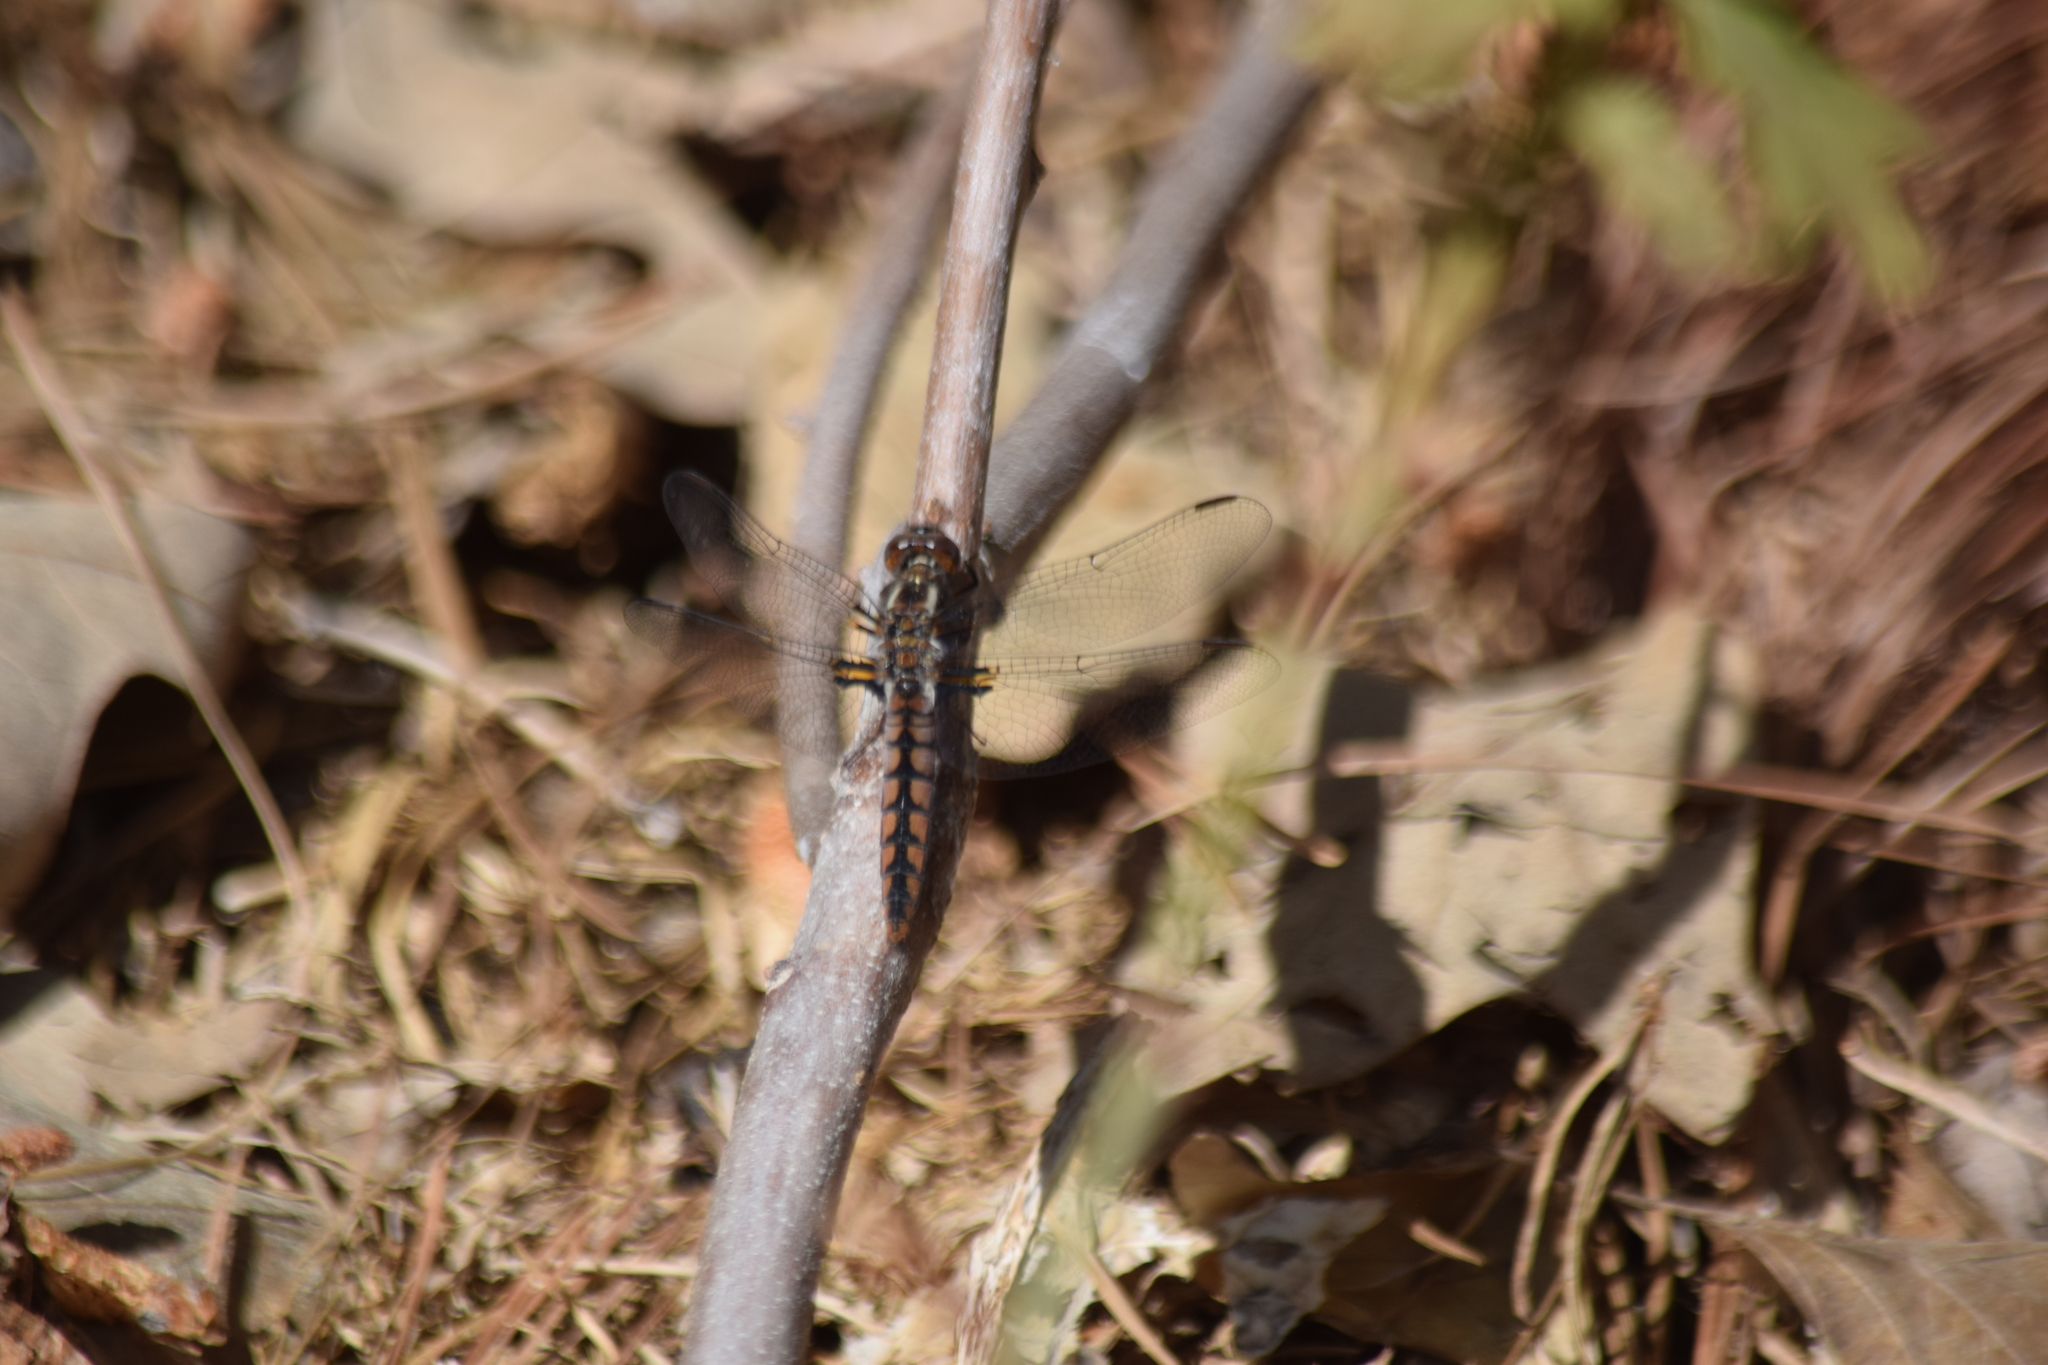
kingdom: Animalia
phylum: Arthropoda
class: Insecta
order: Odonata
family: Libellulidae
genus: Ladona
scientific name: Ladona deplanata
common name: Blue corporal
